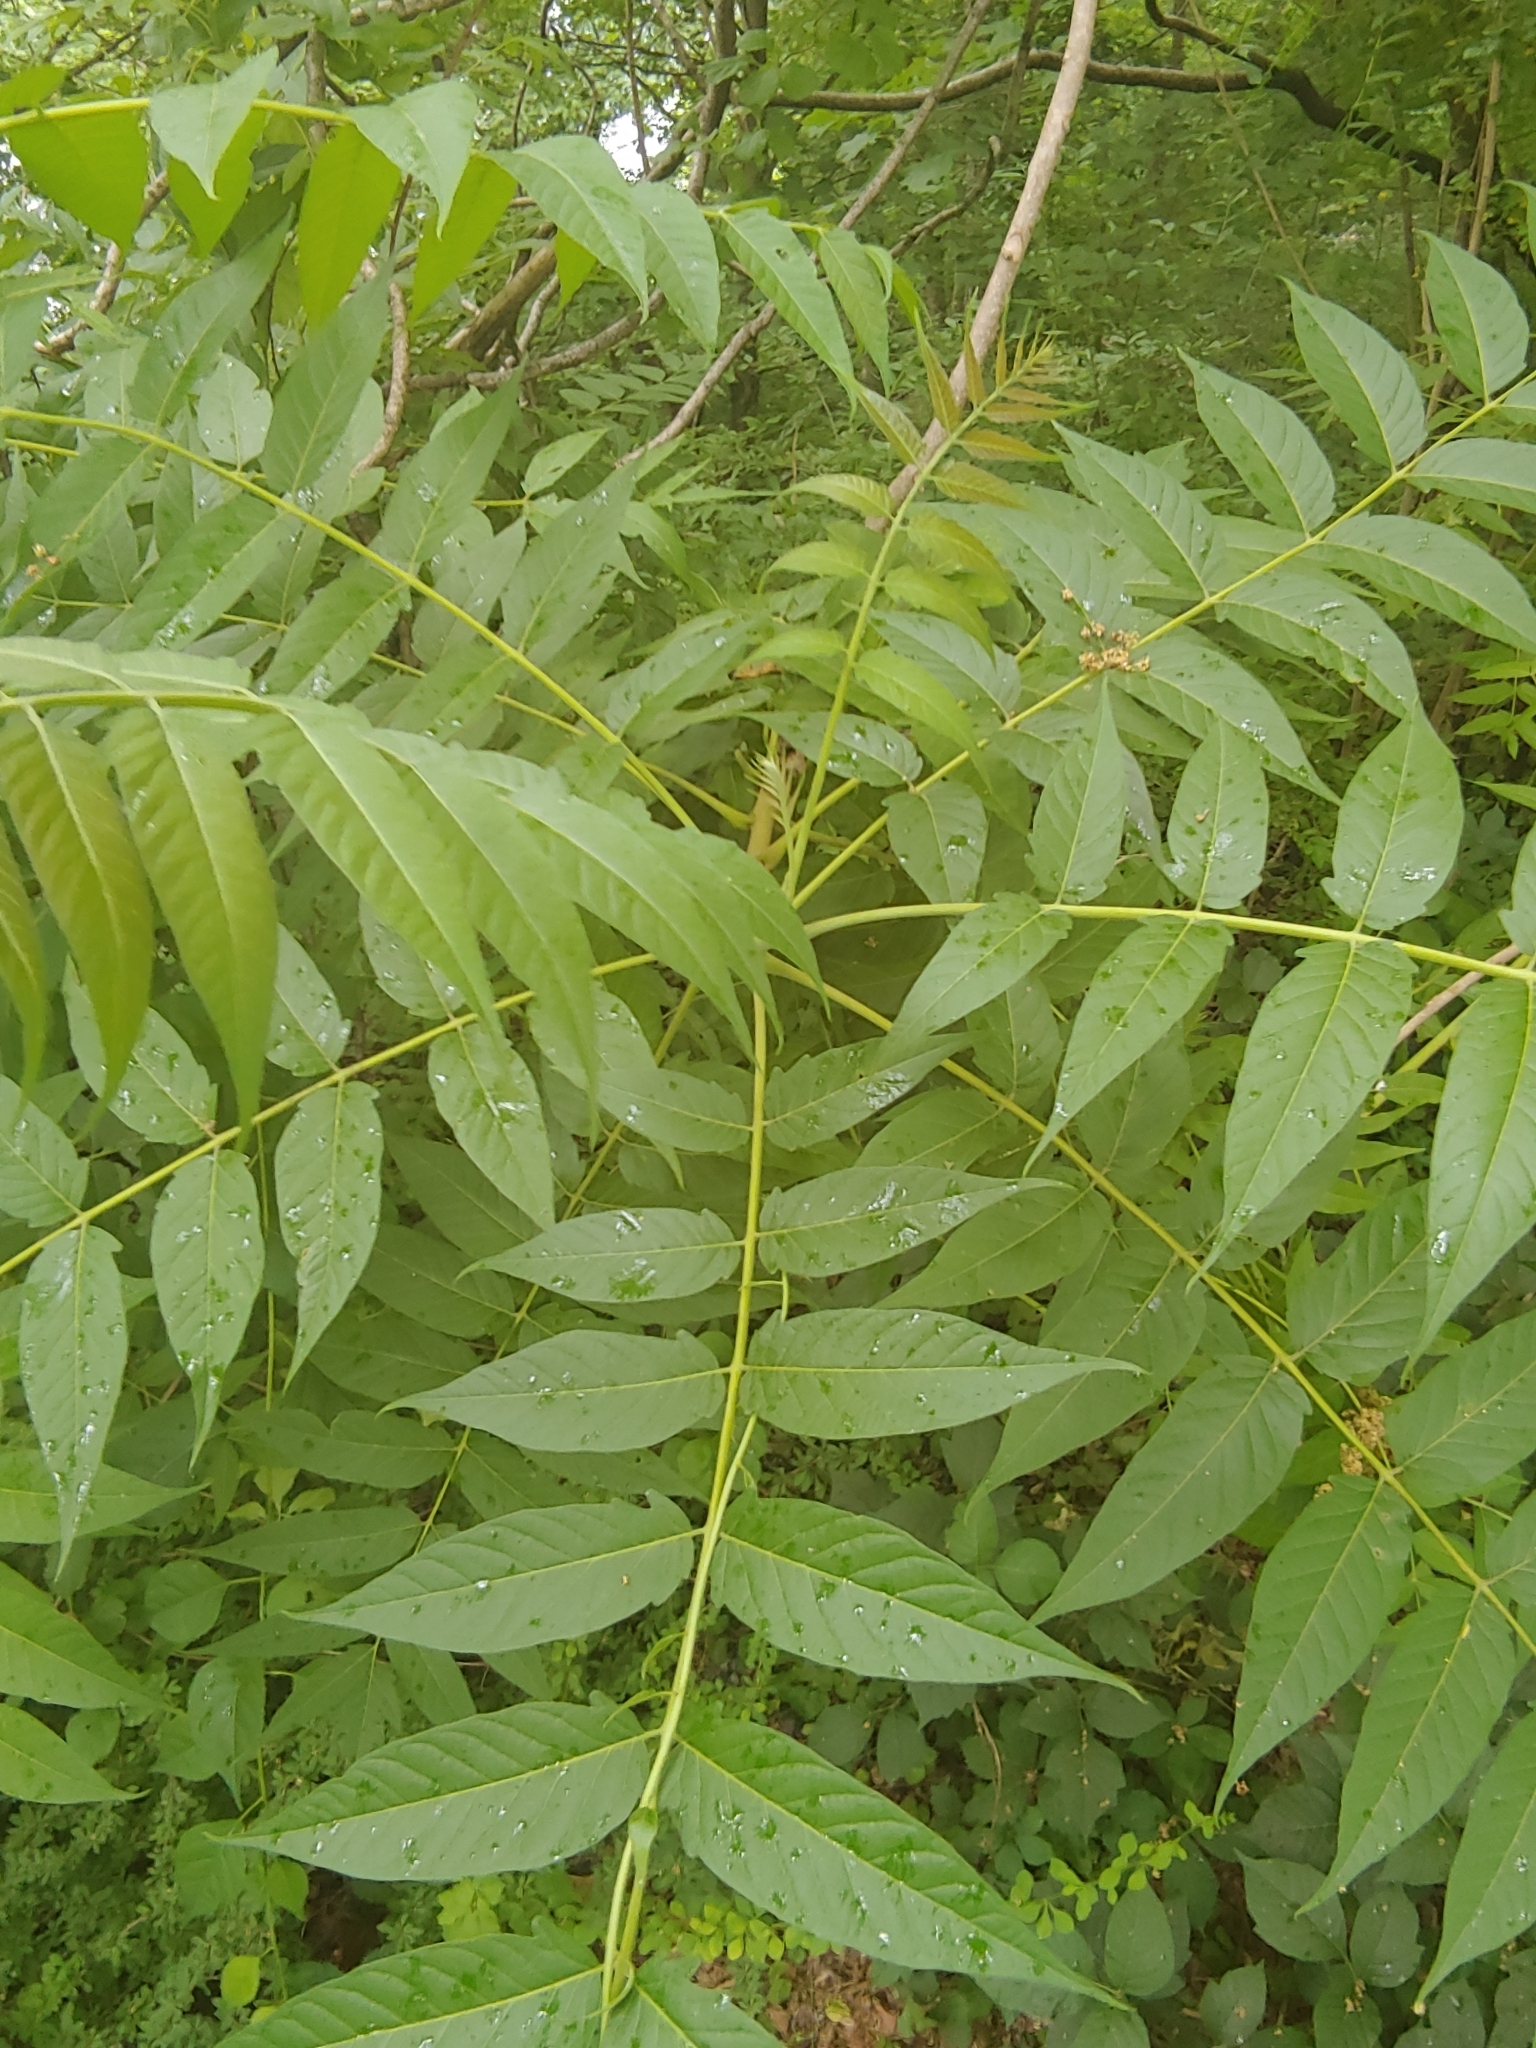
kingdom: Plantae
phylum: Tracheophyta
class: Magnoliopsida
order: Sapindales
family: Simaroubaceae
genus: Ailanthus
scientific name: Ailanthus altissima
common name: Tree-of-heaven
